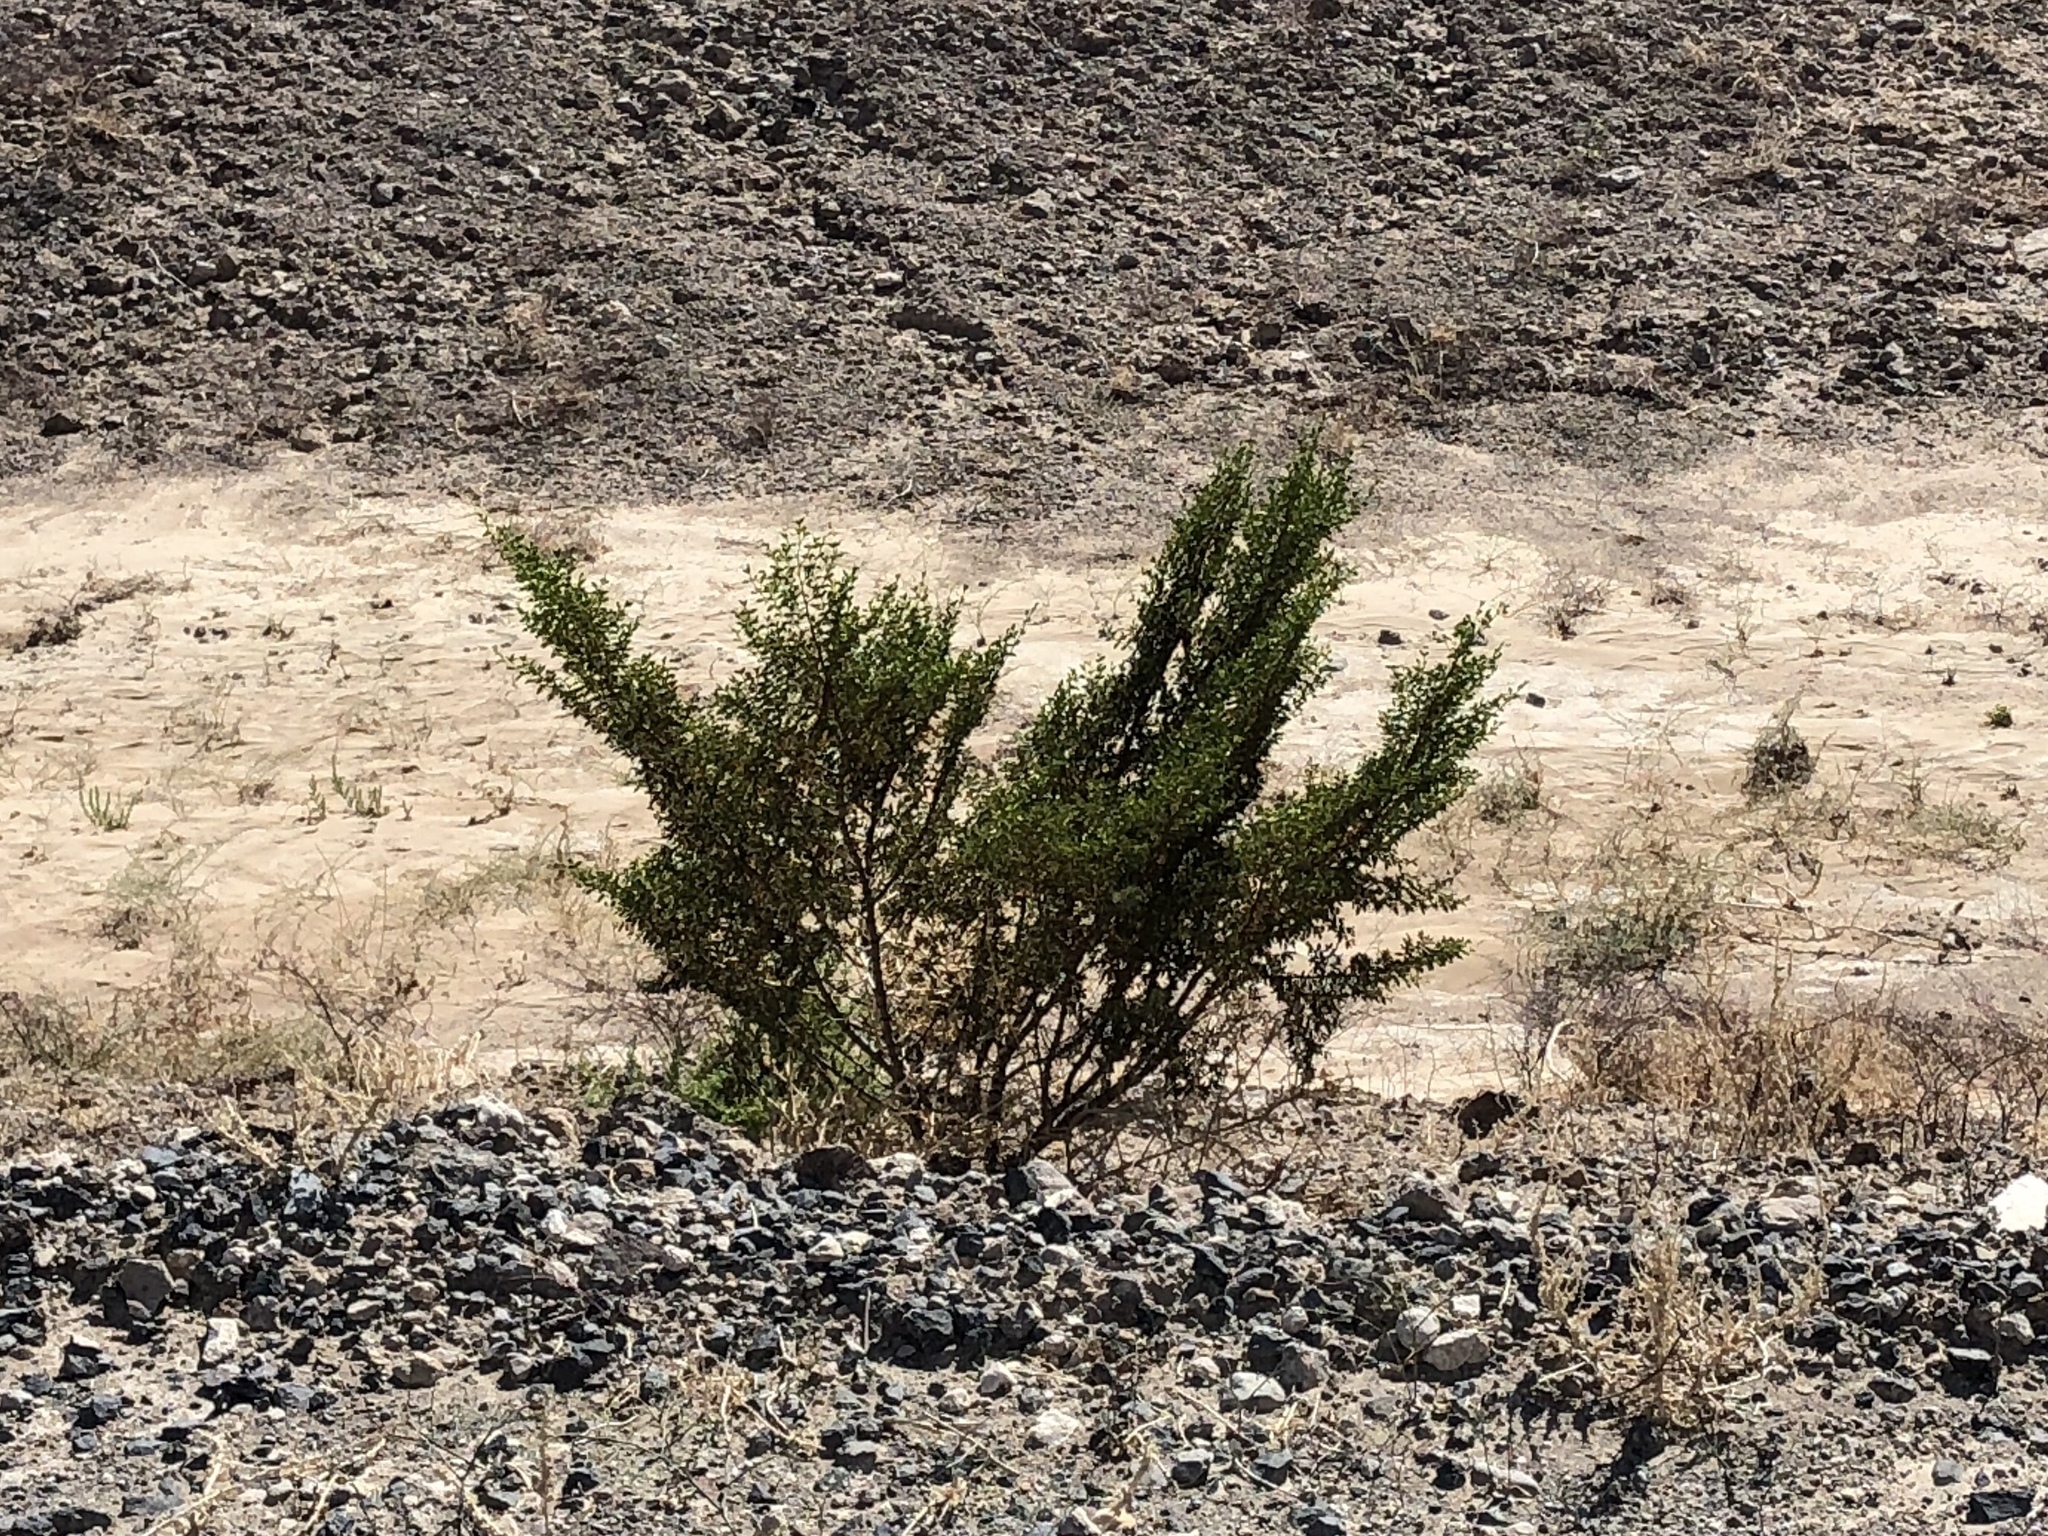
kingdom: Plantae
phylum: Tracheophyta
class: Magnoliopsida
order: Zygophyllales
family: Zygophyllaceae
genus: Larrea
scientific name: Larrea tridentata
